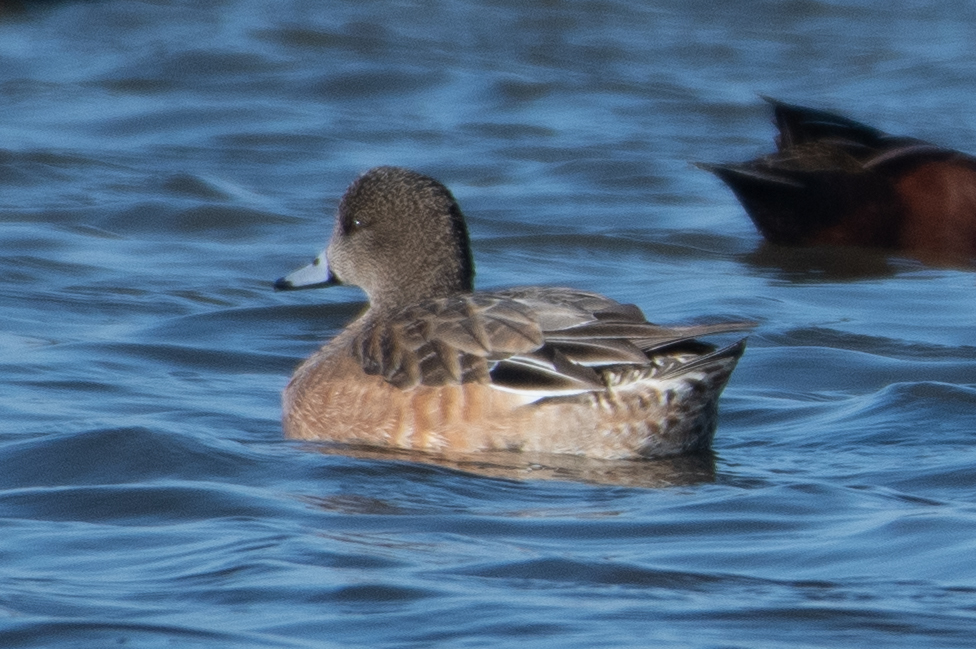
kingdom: Animalia
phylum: Chordata
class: Aves
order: Anseriformes
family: Anatidae
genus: Mareca
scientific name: Mareca americana
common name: American wigeon
